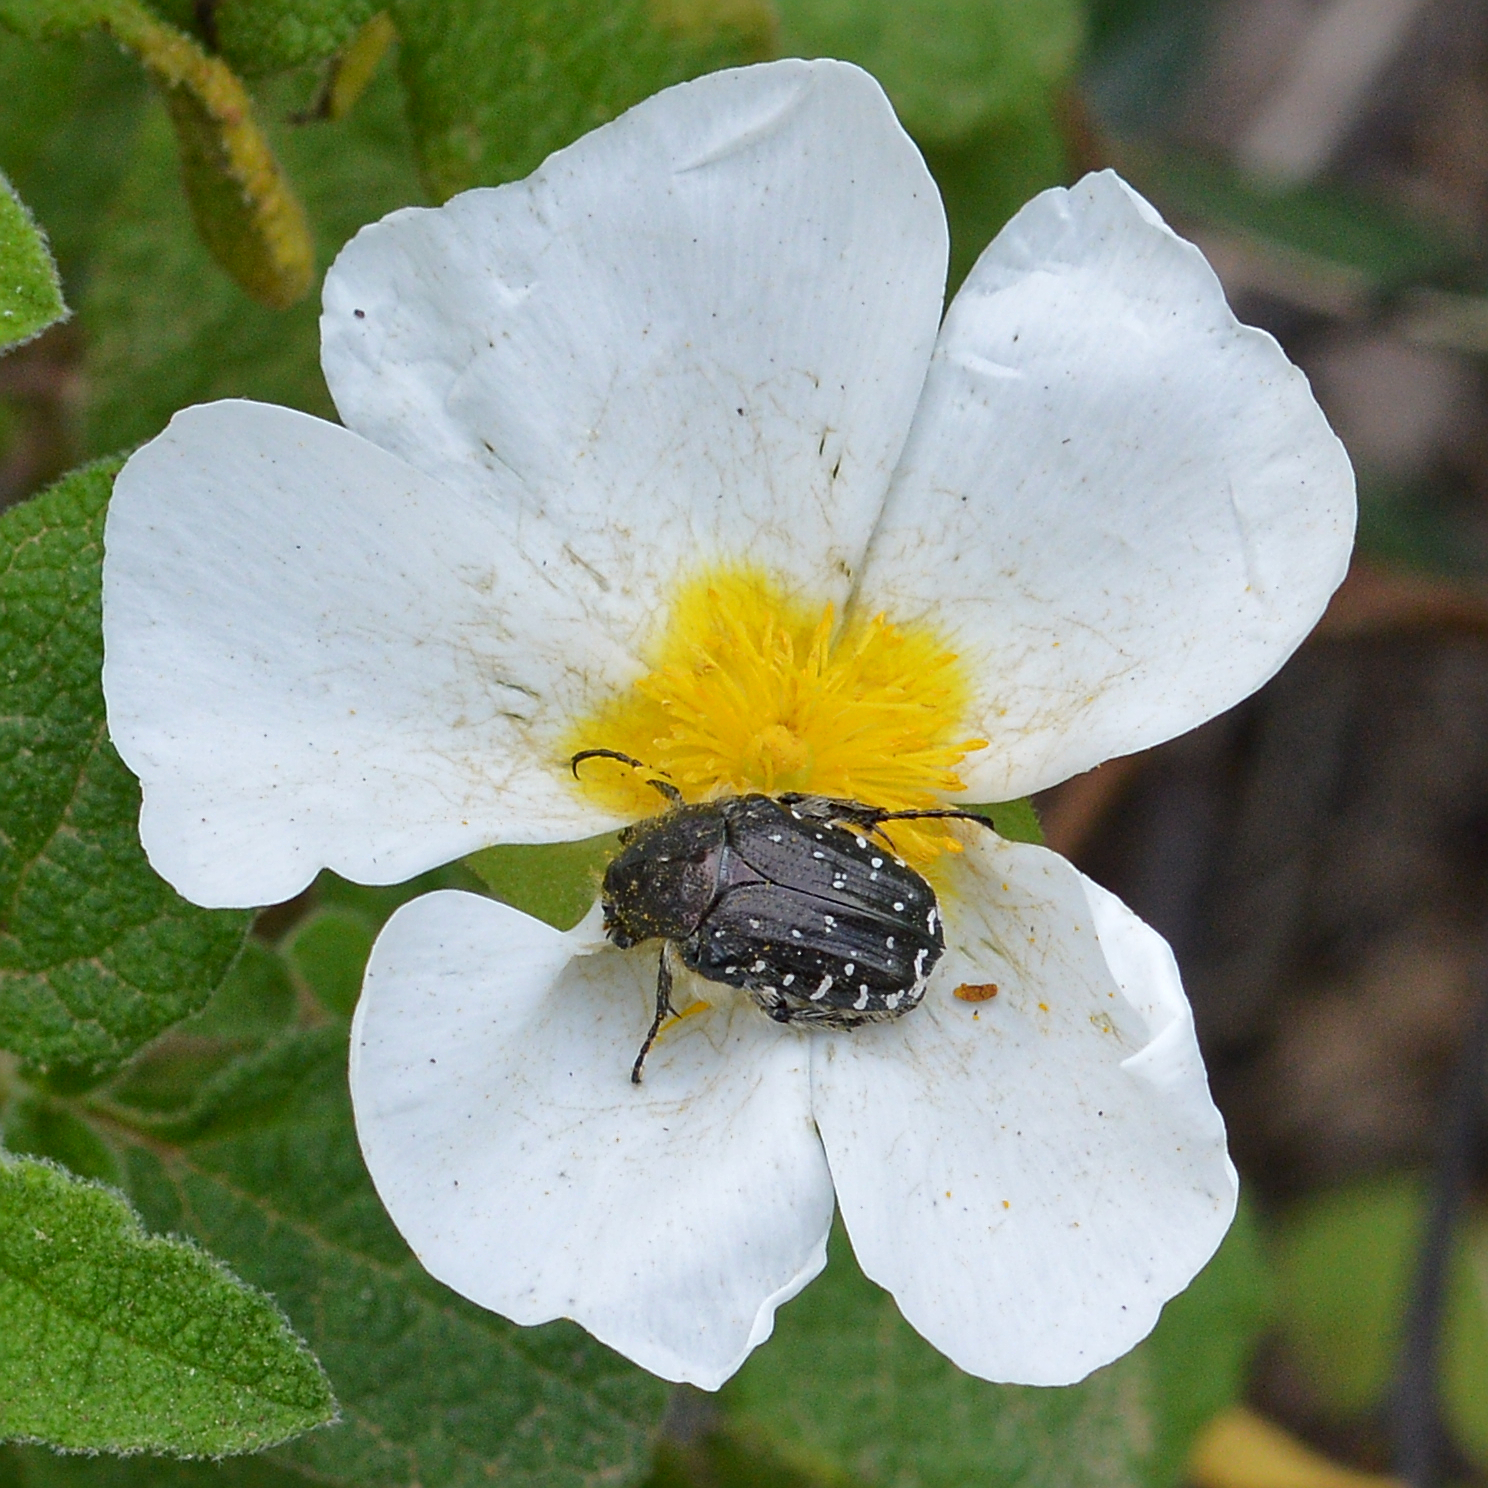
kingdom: Plantae
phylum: Tracheophyta
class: Magnoliopsida
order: Malvales
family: Cistaceae
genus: Cistus
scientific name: Cistus salviifolius
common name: Salvia cistus
